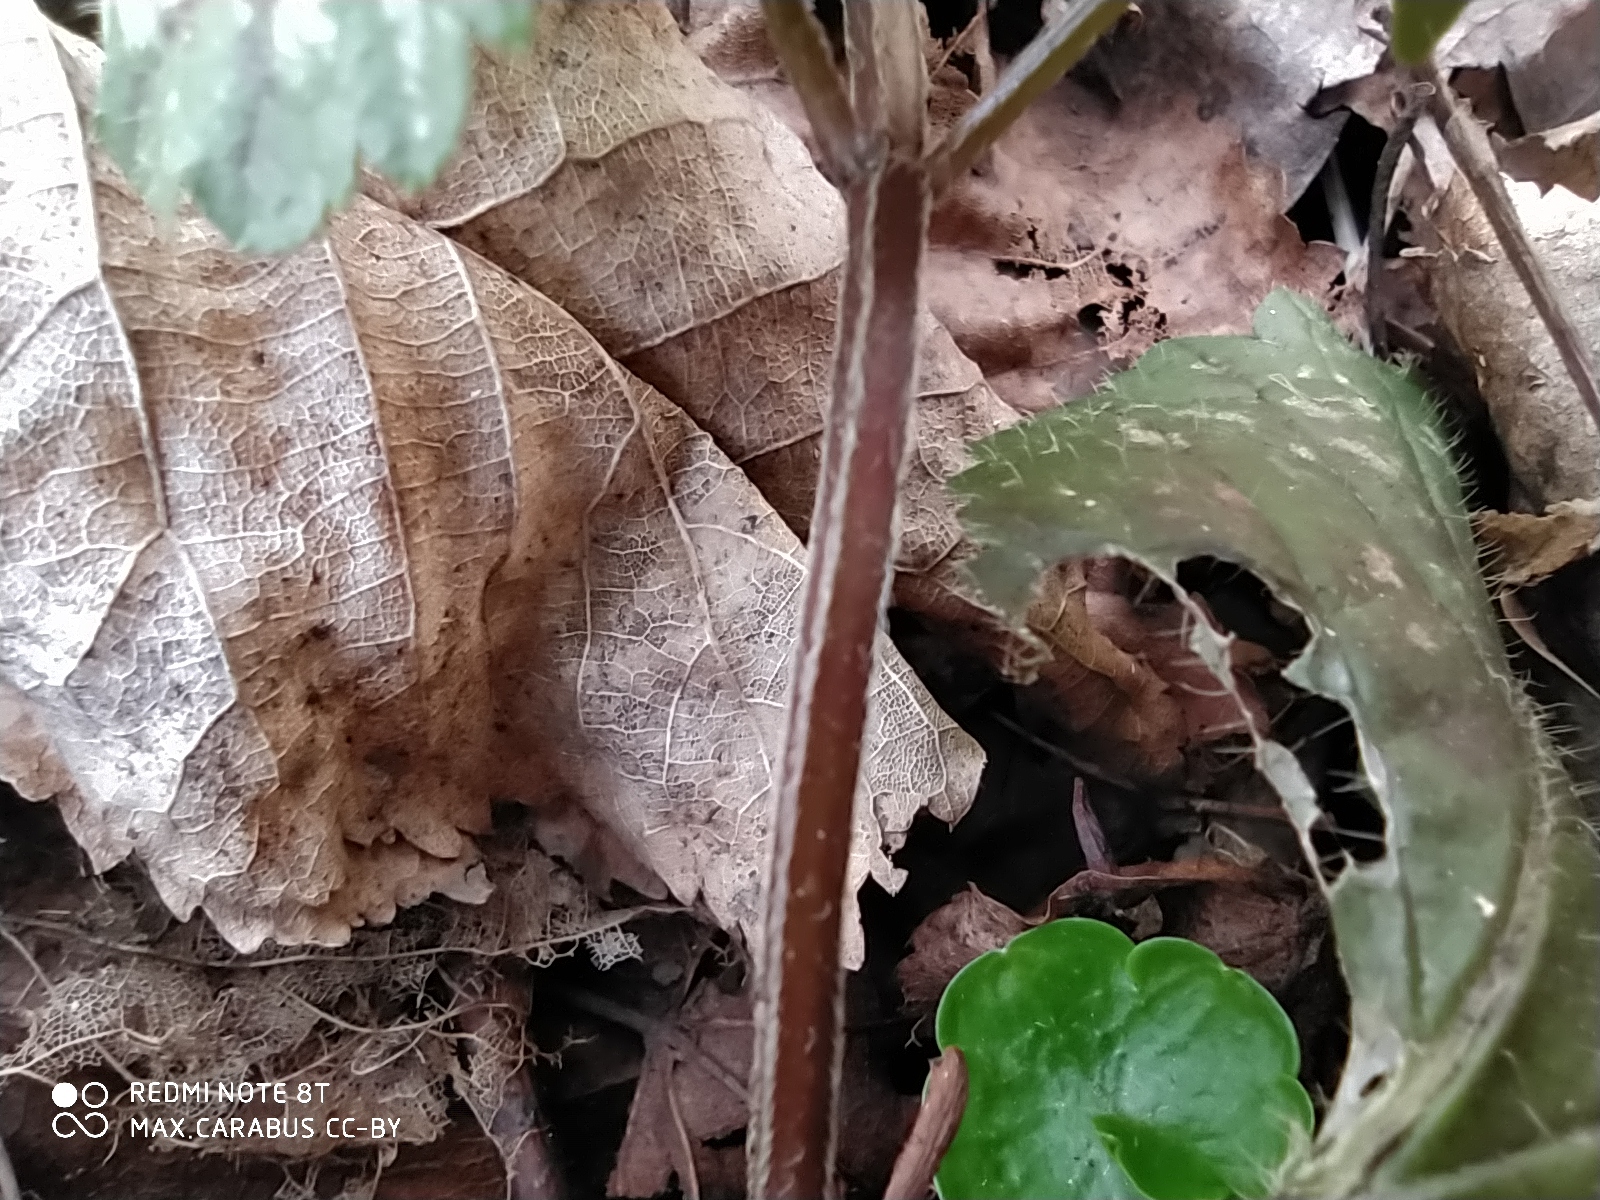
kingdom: Plantae
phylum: Tracheophyta
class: Magnoliopsida
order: Lamiales
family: Lamiaceae
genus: Lamium
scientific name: Lamium galeobdolon
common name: Yellow archangel
